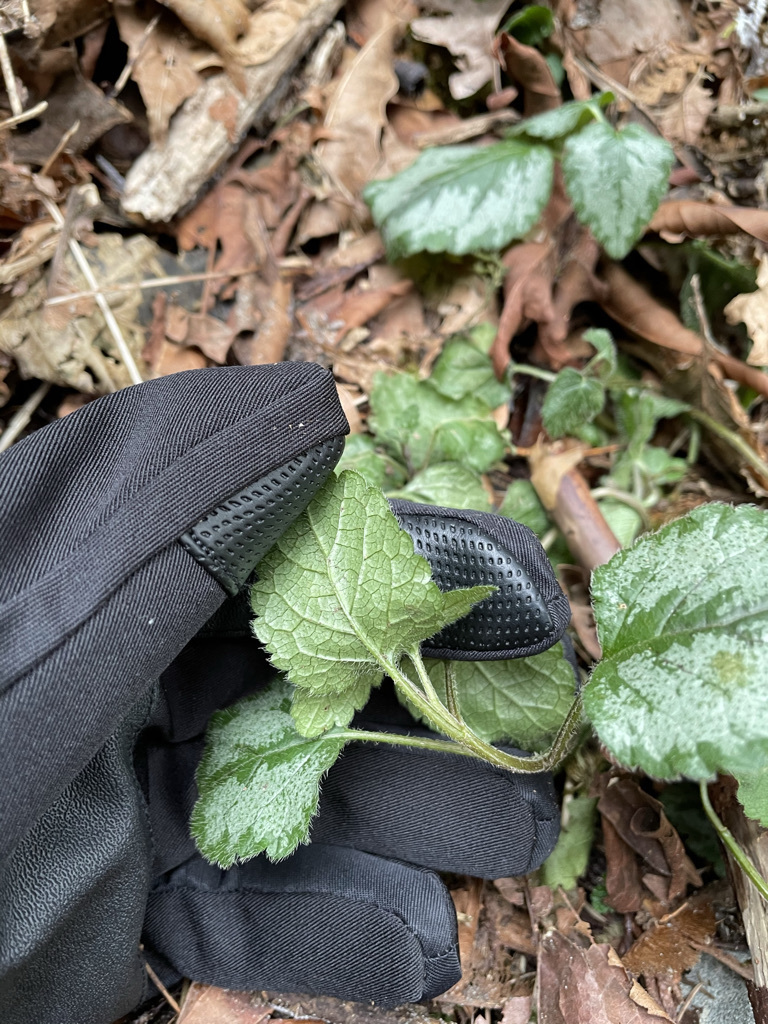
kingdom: Plantae
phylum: Tracheophyta
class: Magnoliopsida
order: Lamiales
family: Lamiaceae
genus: Lamium
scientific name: Lamium galeobdolon
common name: Yellow archangel
